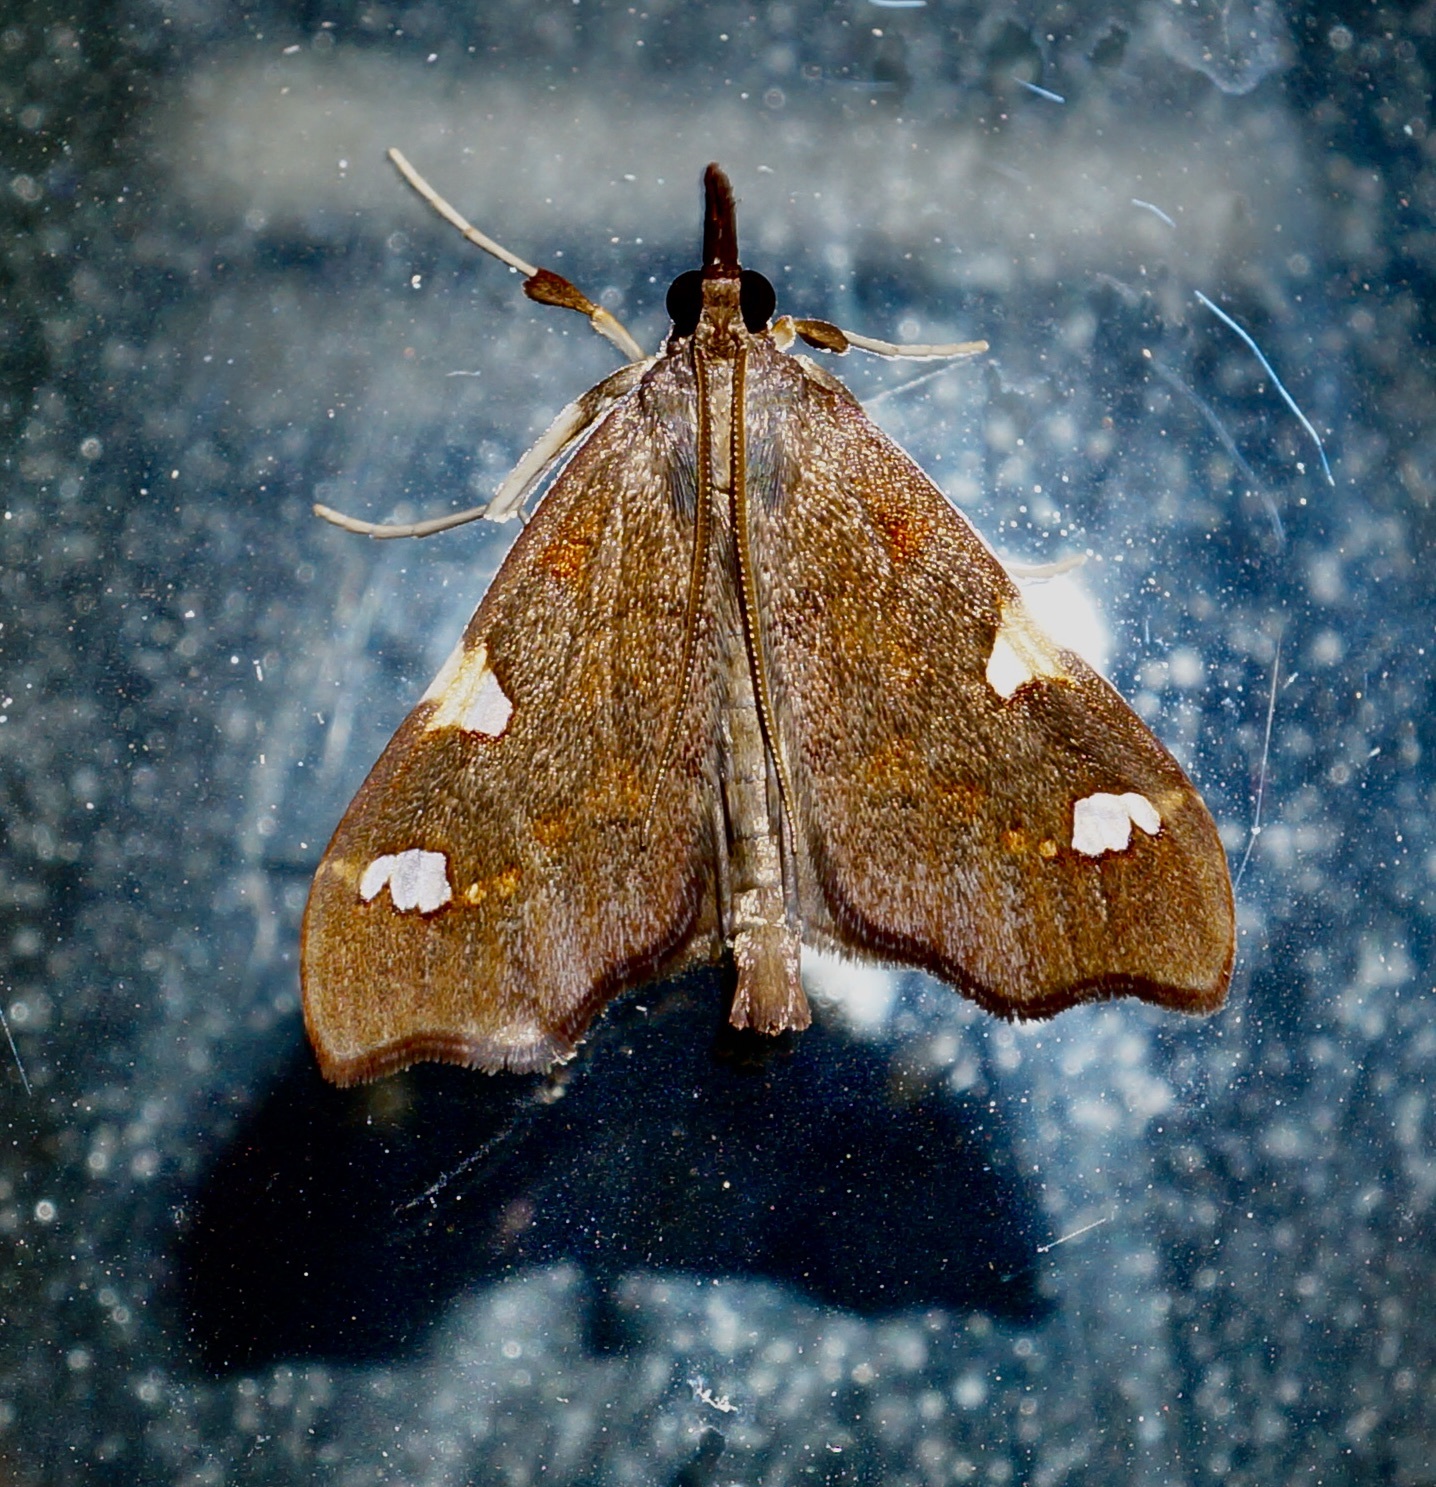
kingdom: Animalia
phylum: Arthropoda
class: Insecta
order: Lepidoptera
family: Crambidae
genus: Deana
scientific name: Deana hybreasalis
